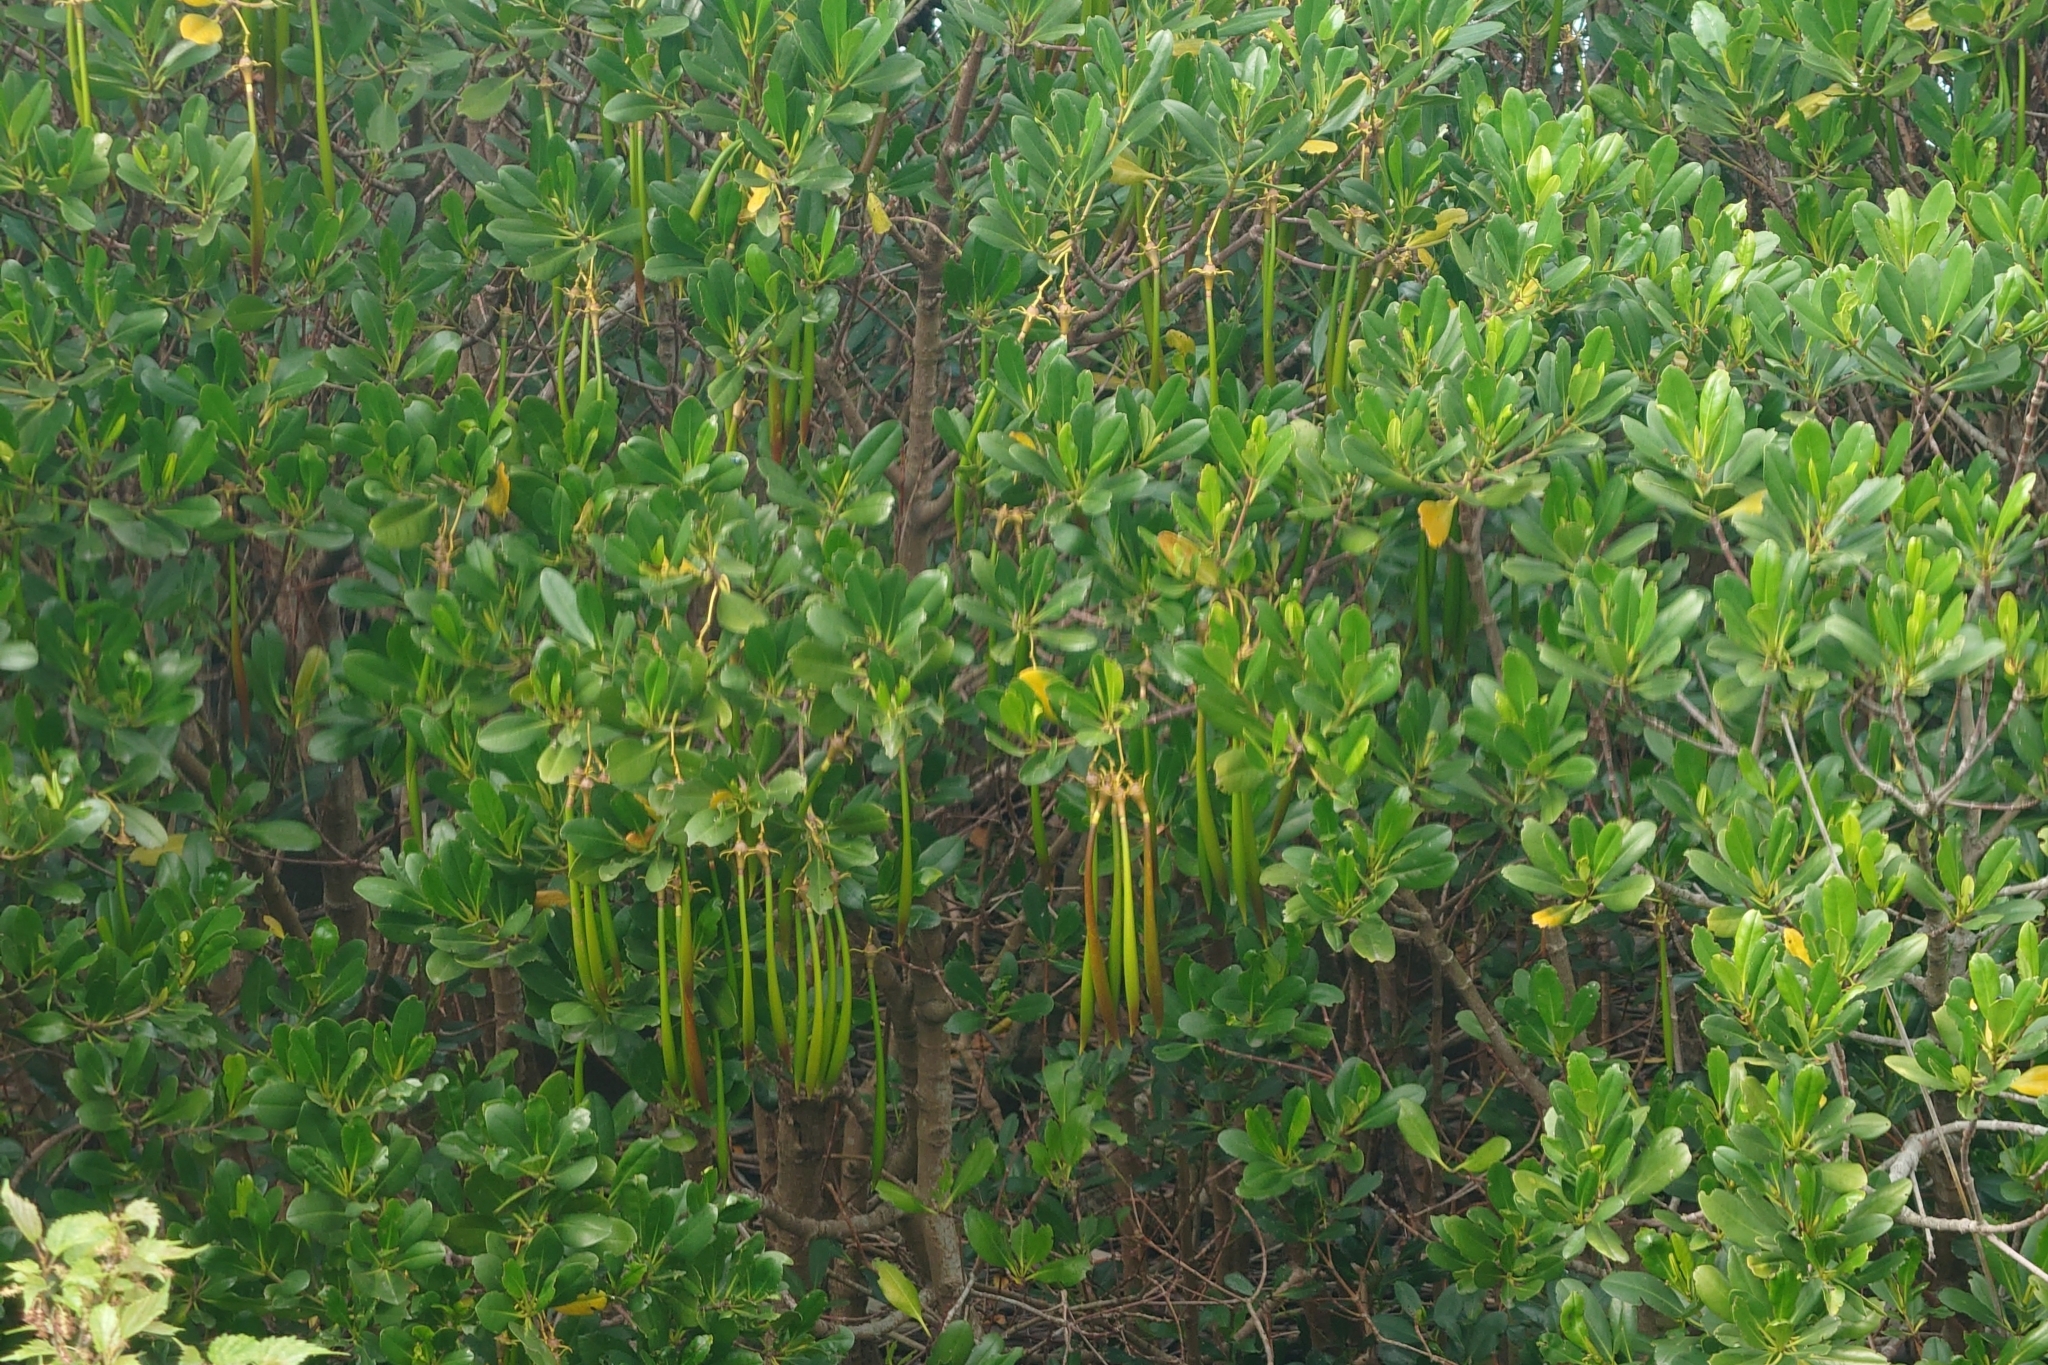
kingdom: Plantae
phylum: Tracheophyta
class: Magnoliopsida
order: Malpighiales
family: Rhizophoraceae
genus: Kandelia
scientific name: Kandelia obovata
